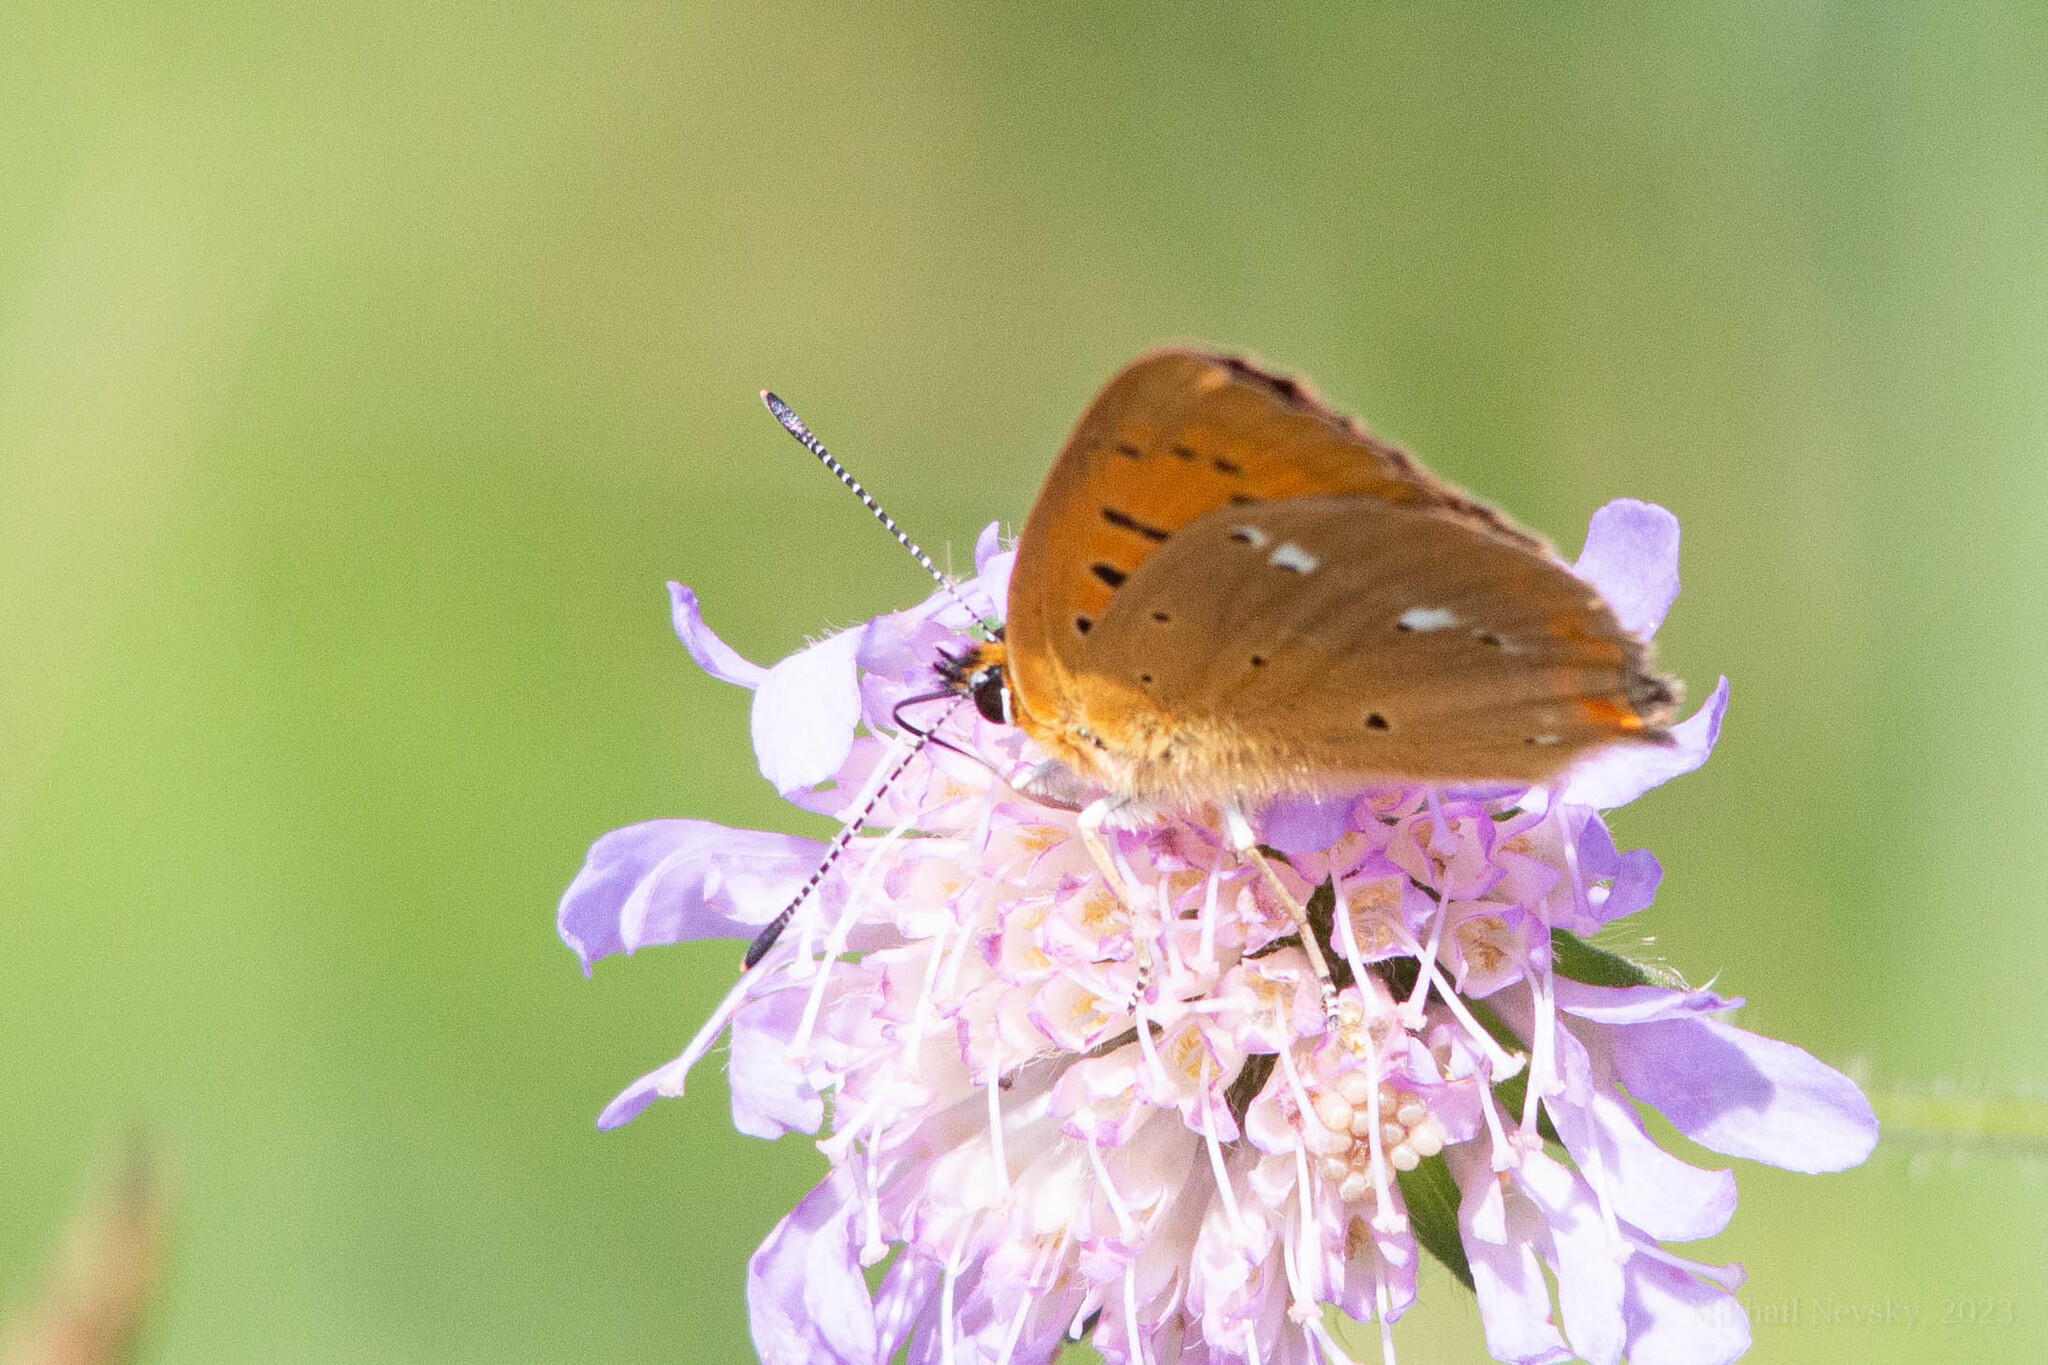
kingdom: Animalia
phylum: Arthropoda
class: Insecta
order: Lepidoptera
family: Lycaenidae
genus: Lycaena
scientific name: Lycaena virgaureae
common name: Scarce copper
